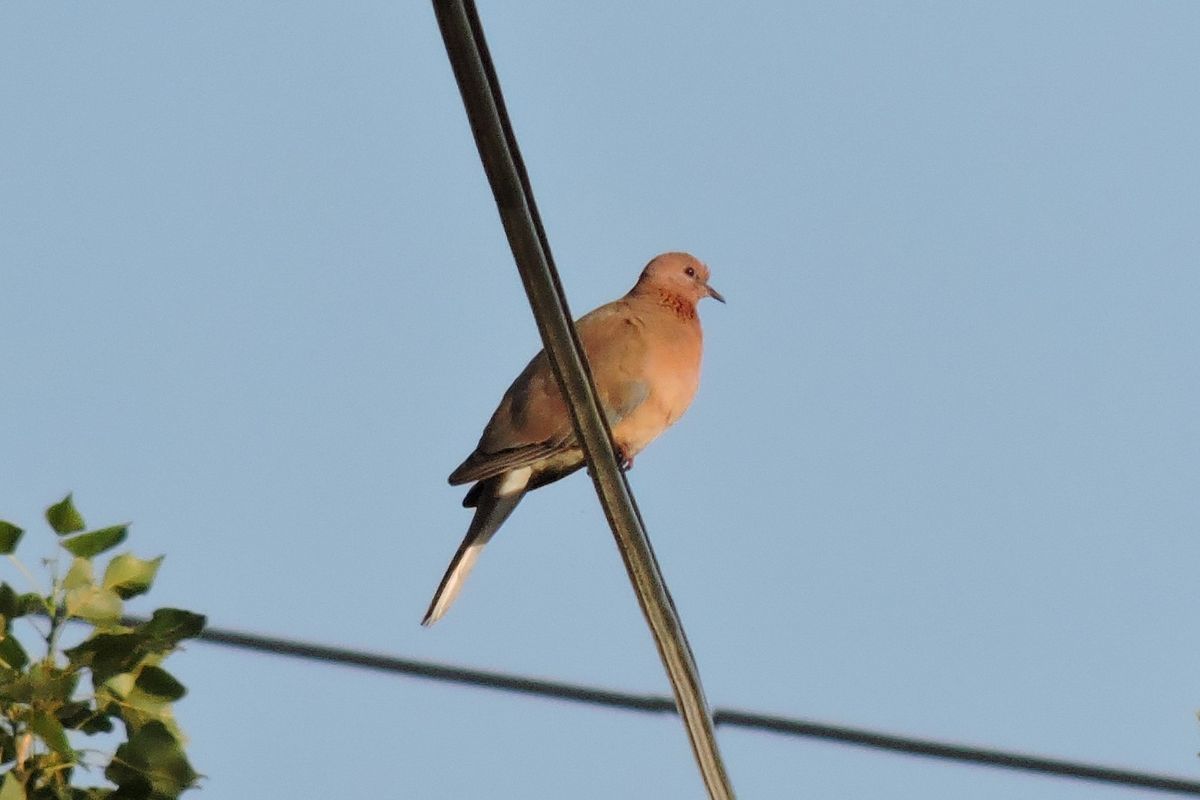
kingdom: Animalia
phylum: Chordata
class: Aves
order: Columbiformes
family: Columbidae
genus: Spilopelia
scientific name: Spilopelia senegalensis
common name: Laughing dove
